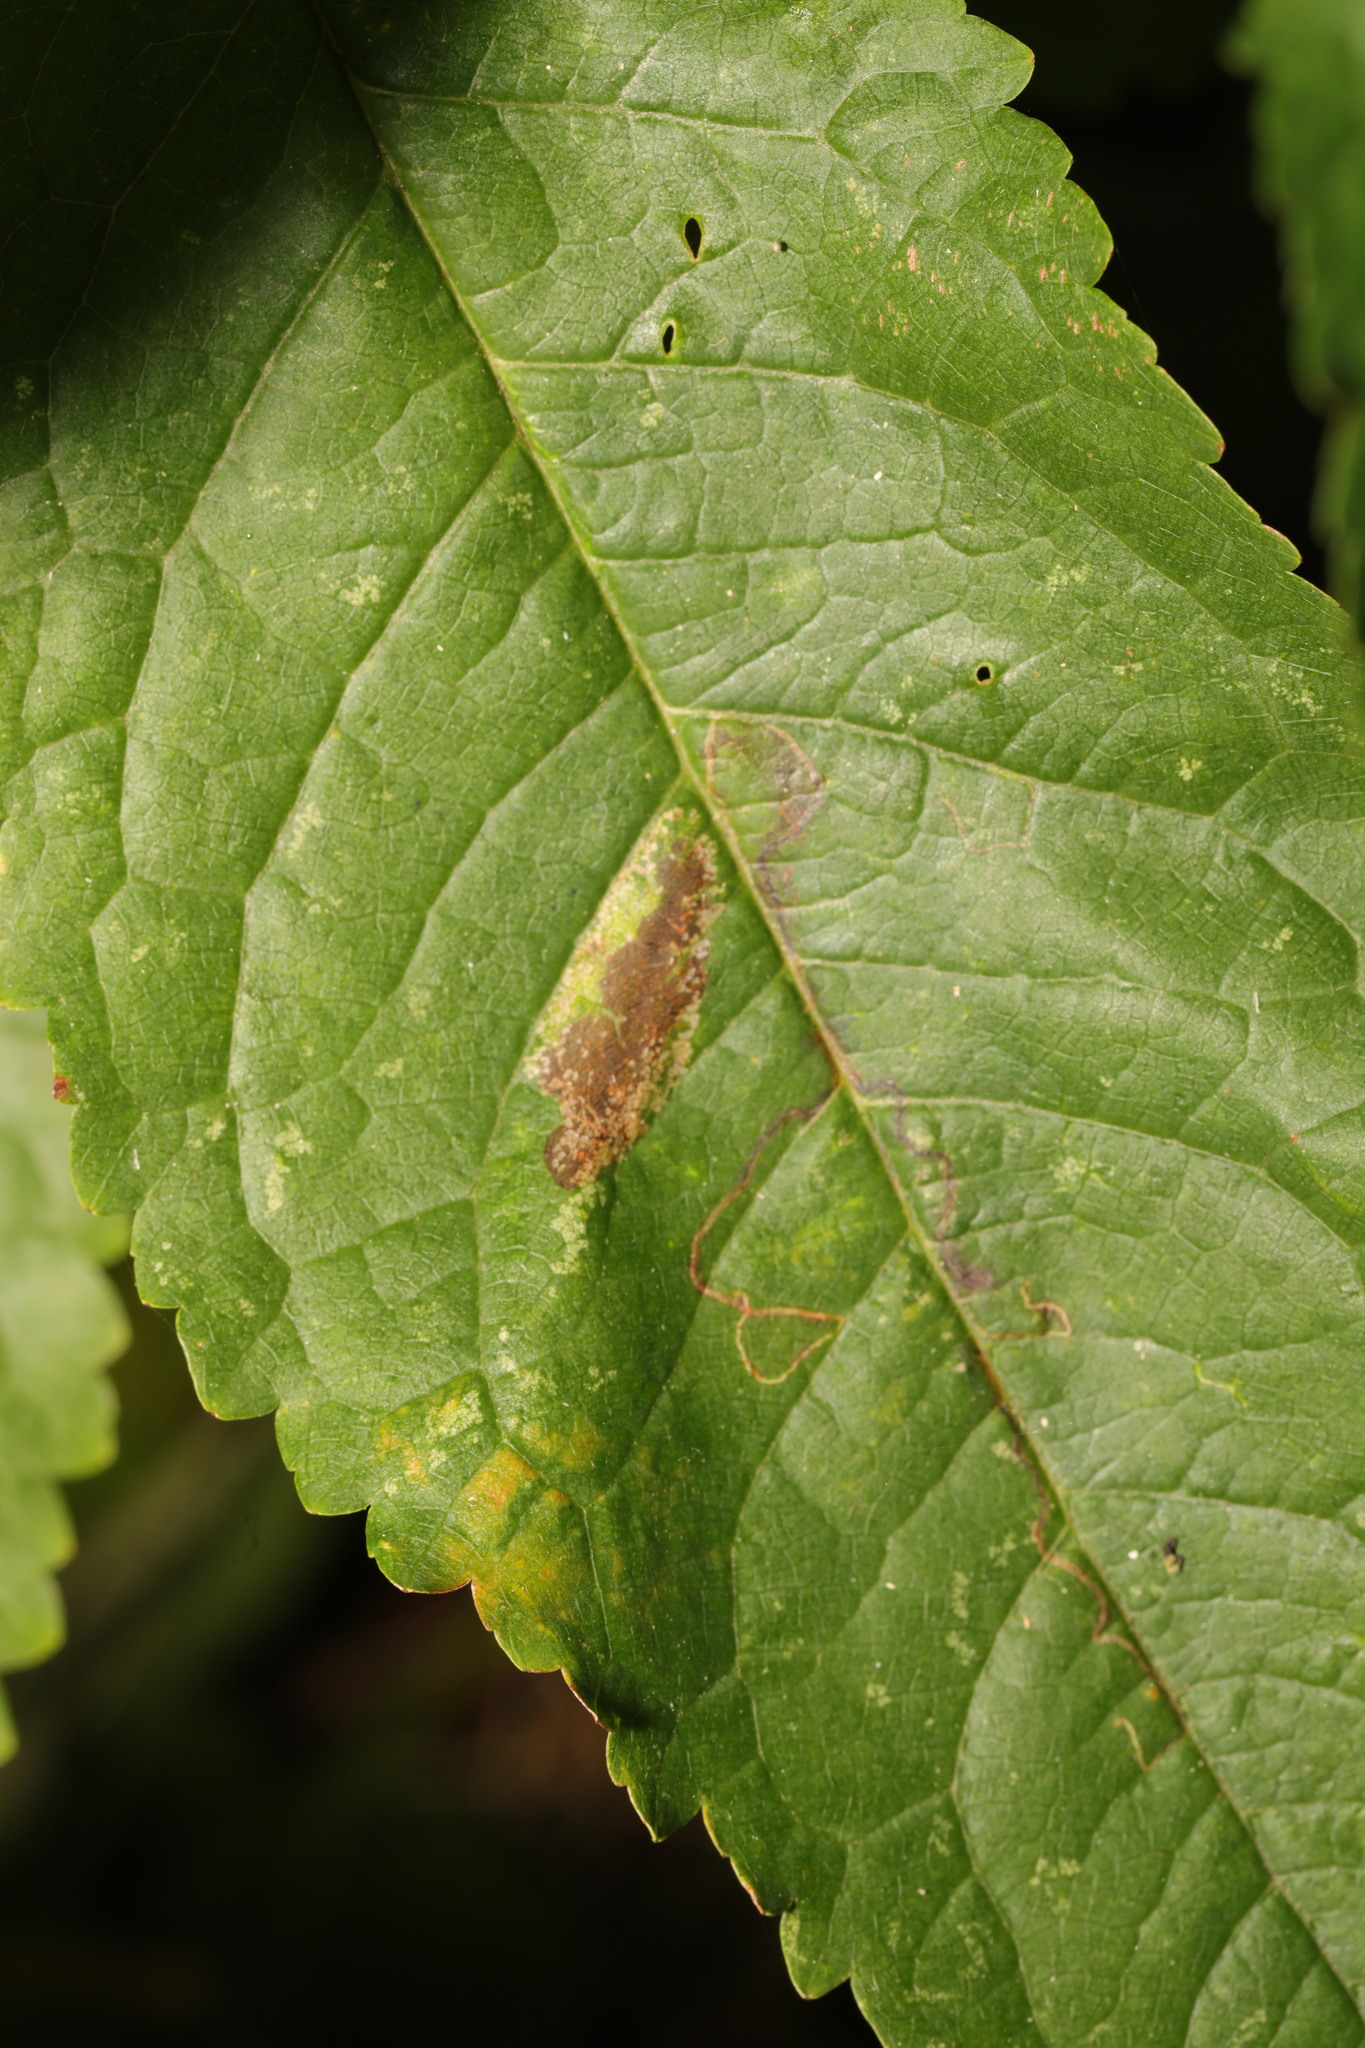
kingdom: Animalia
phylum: Arthropoda
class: Insecta
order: Lepidoptera
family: Gracillariidae
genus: Phyllonorycter
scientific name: Phyllonorycter cerasicolella
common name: Cherry midget
